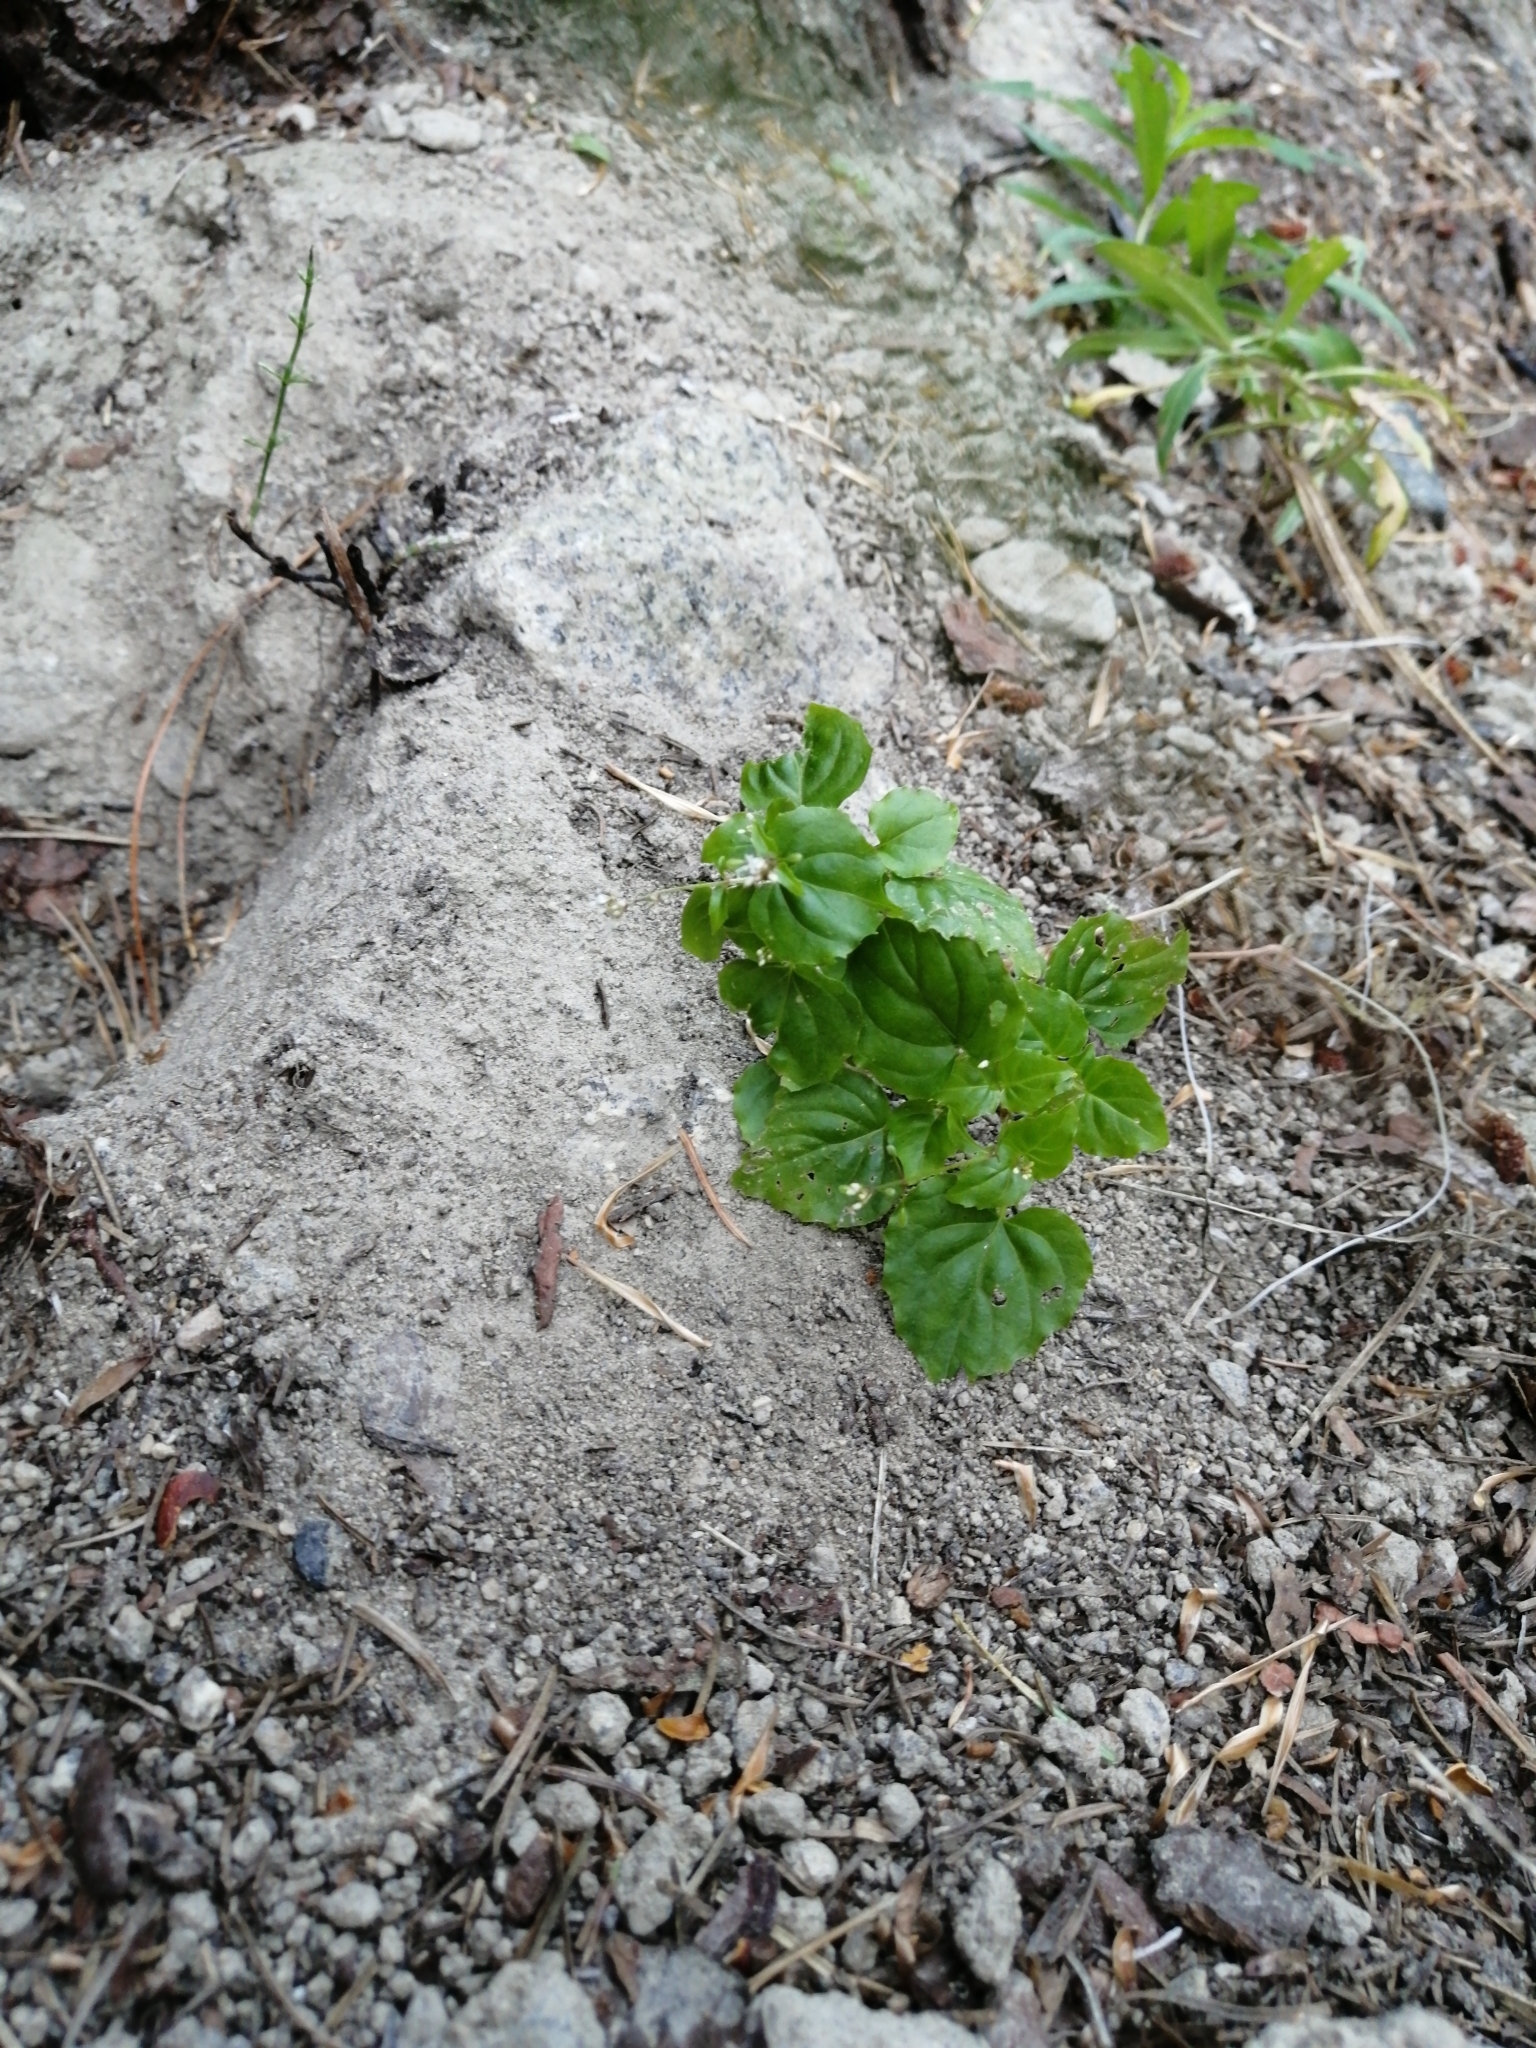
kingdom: Plantae
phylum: Tracheophyta
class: Magnoliopsida
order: Myrtales
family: Onagraceae
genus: Circaea
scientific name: Circaea alpina
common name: Alpine enchanter's-nightshade
